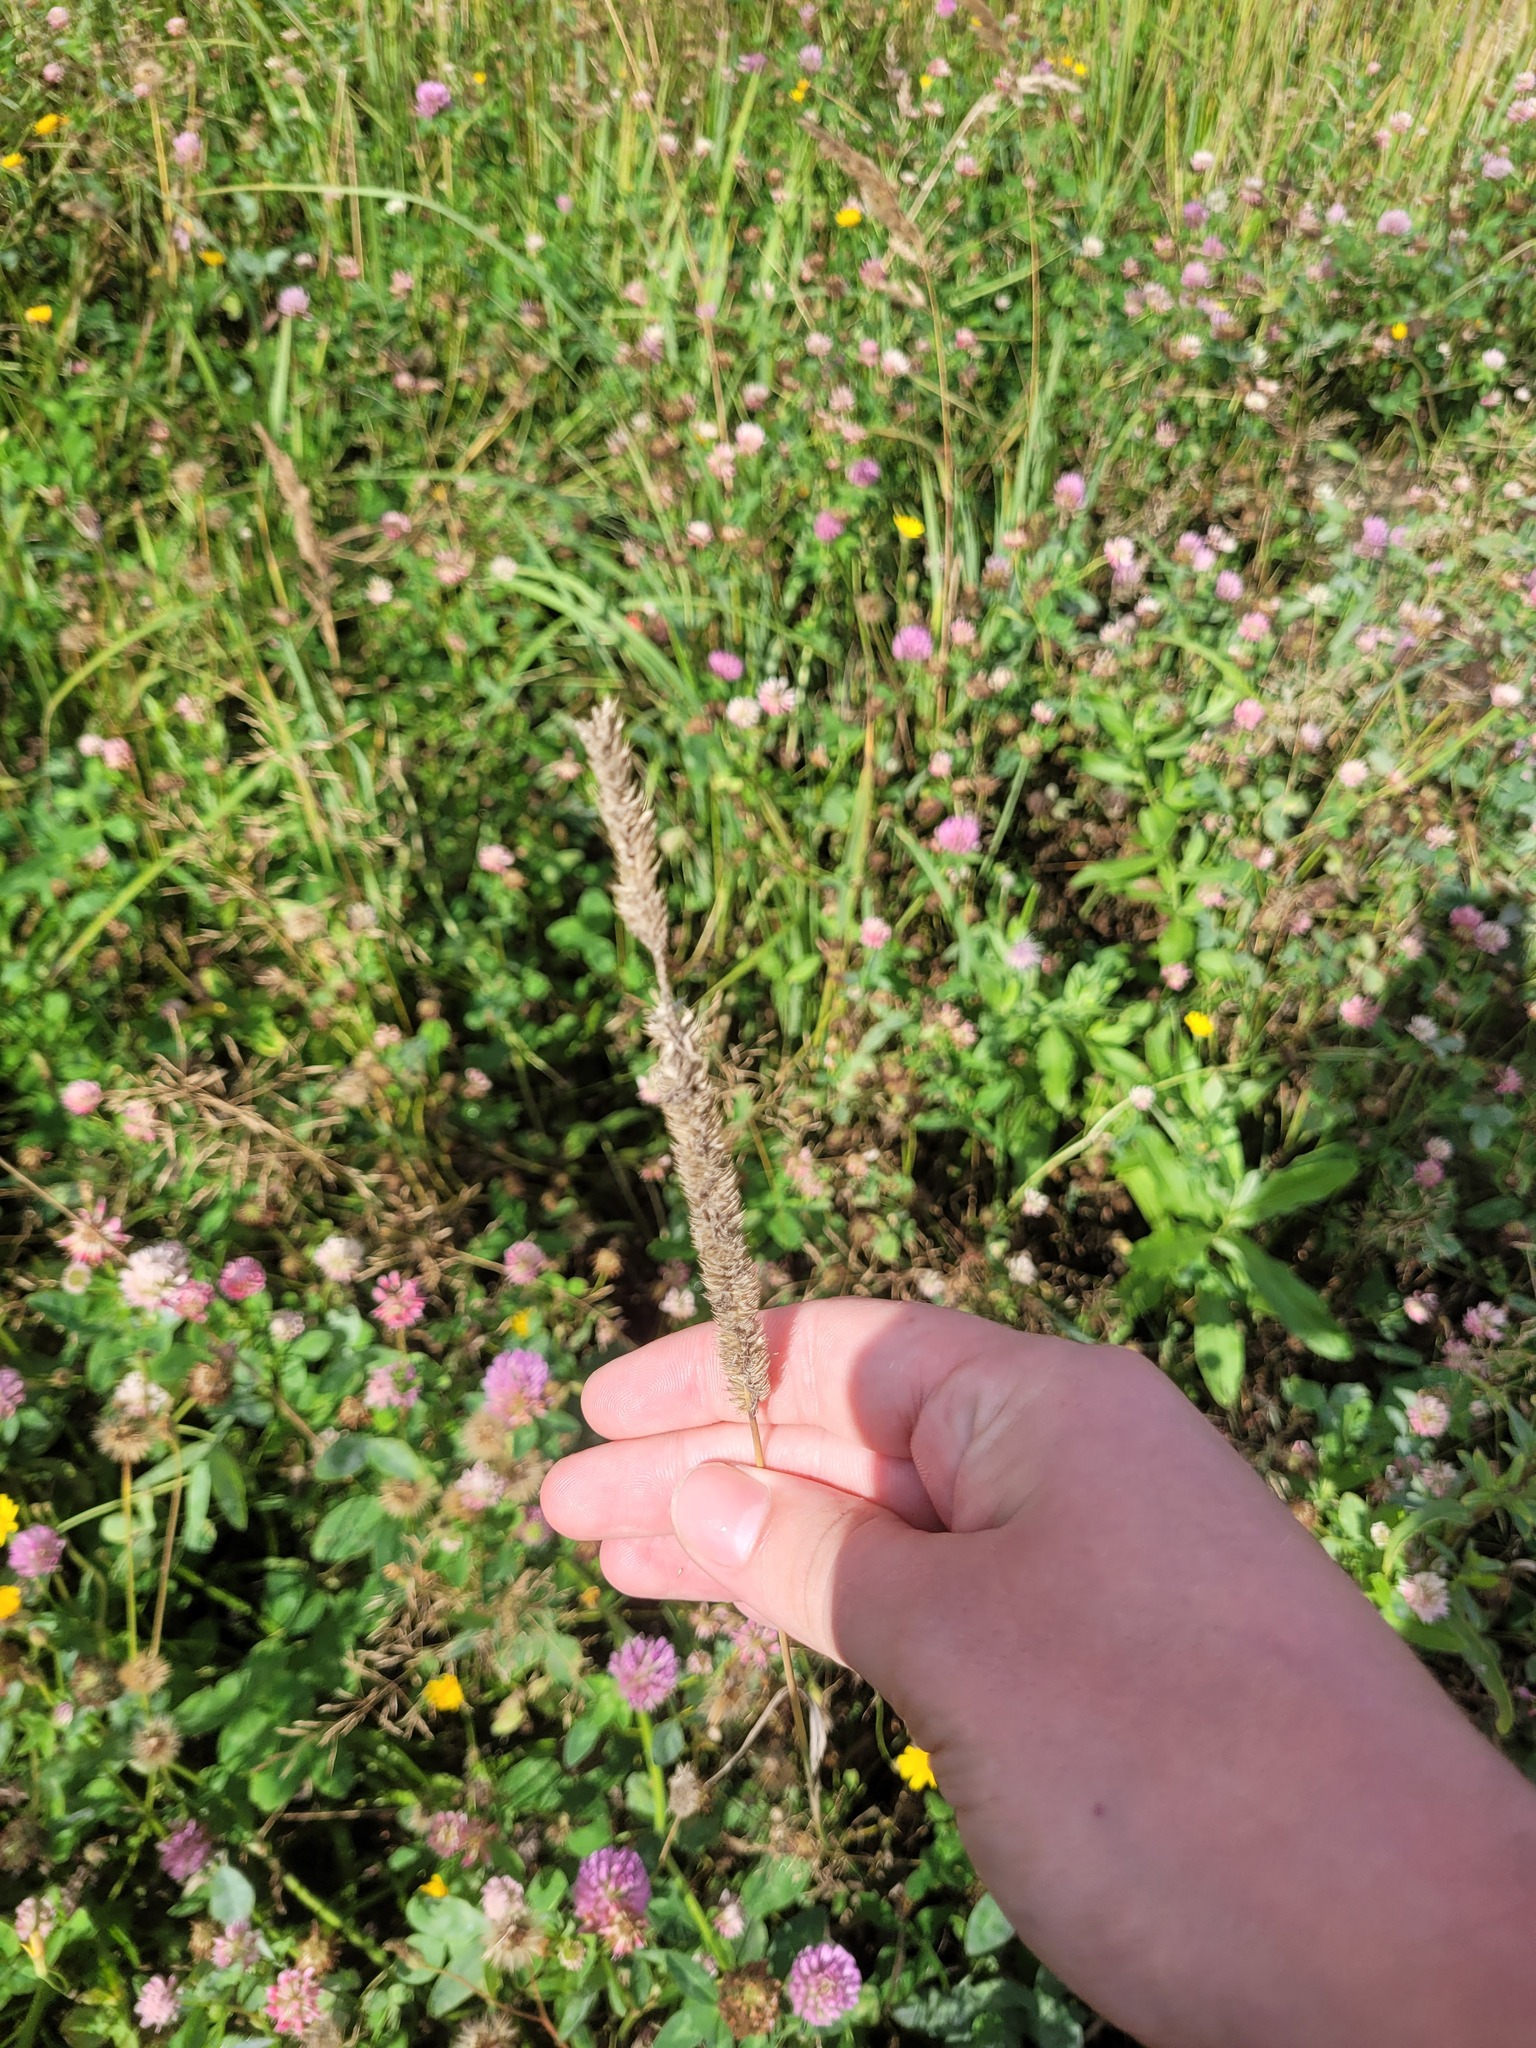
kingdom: Plantae
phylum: Tracheophyta
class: Liliopsida
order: Poales
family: Poaceae
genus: Phleum
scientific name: Phleum pratense
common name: Timothy grass
